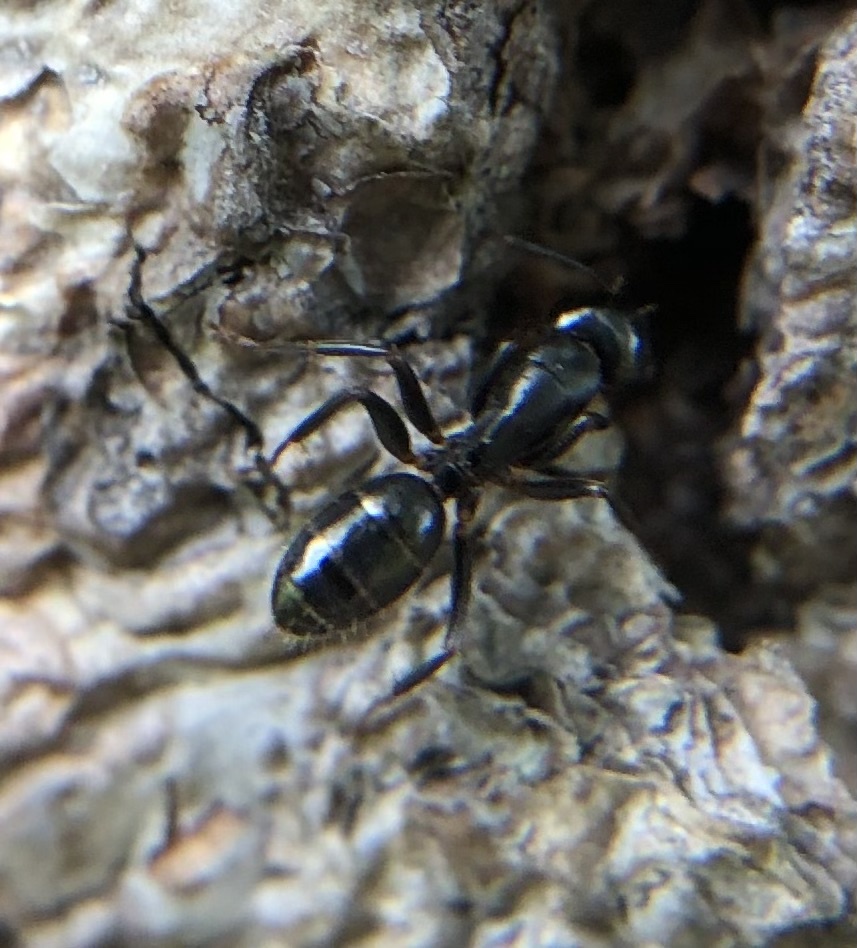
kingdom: Animalia
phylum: Arthropoda
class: Insecta
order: Hymenoptera
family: Formicidae
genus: Myrmentoma
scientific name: Myrmentoma
